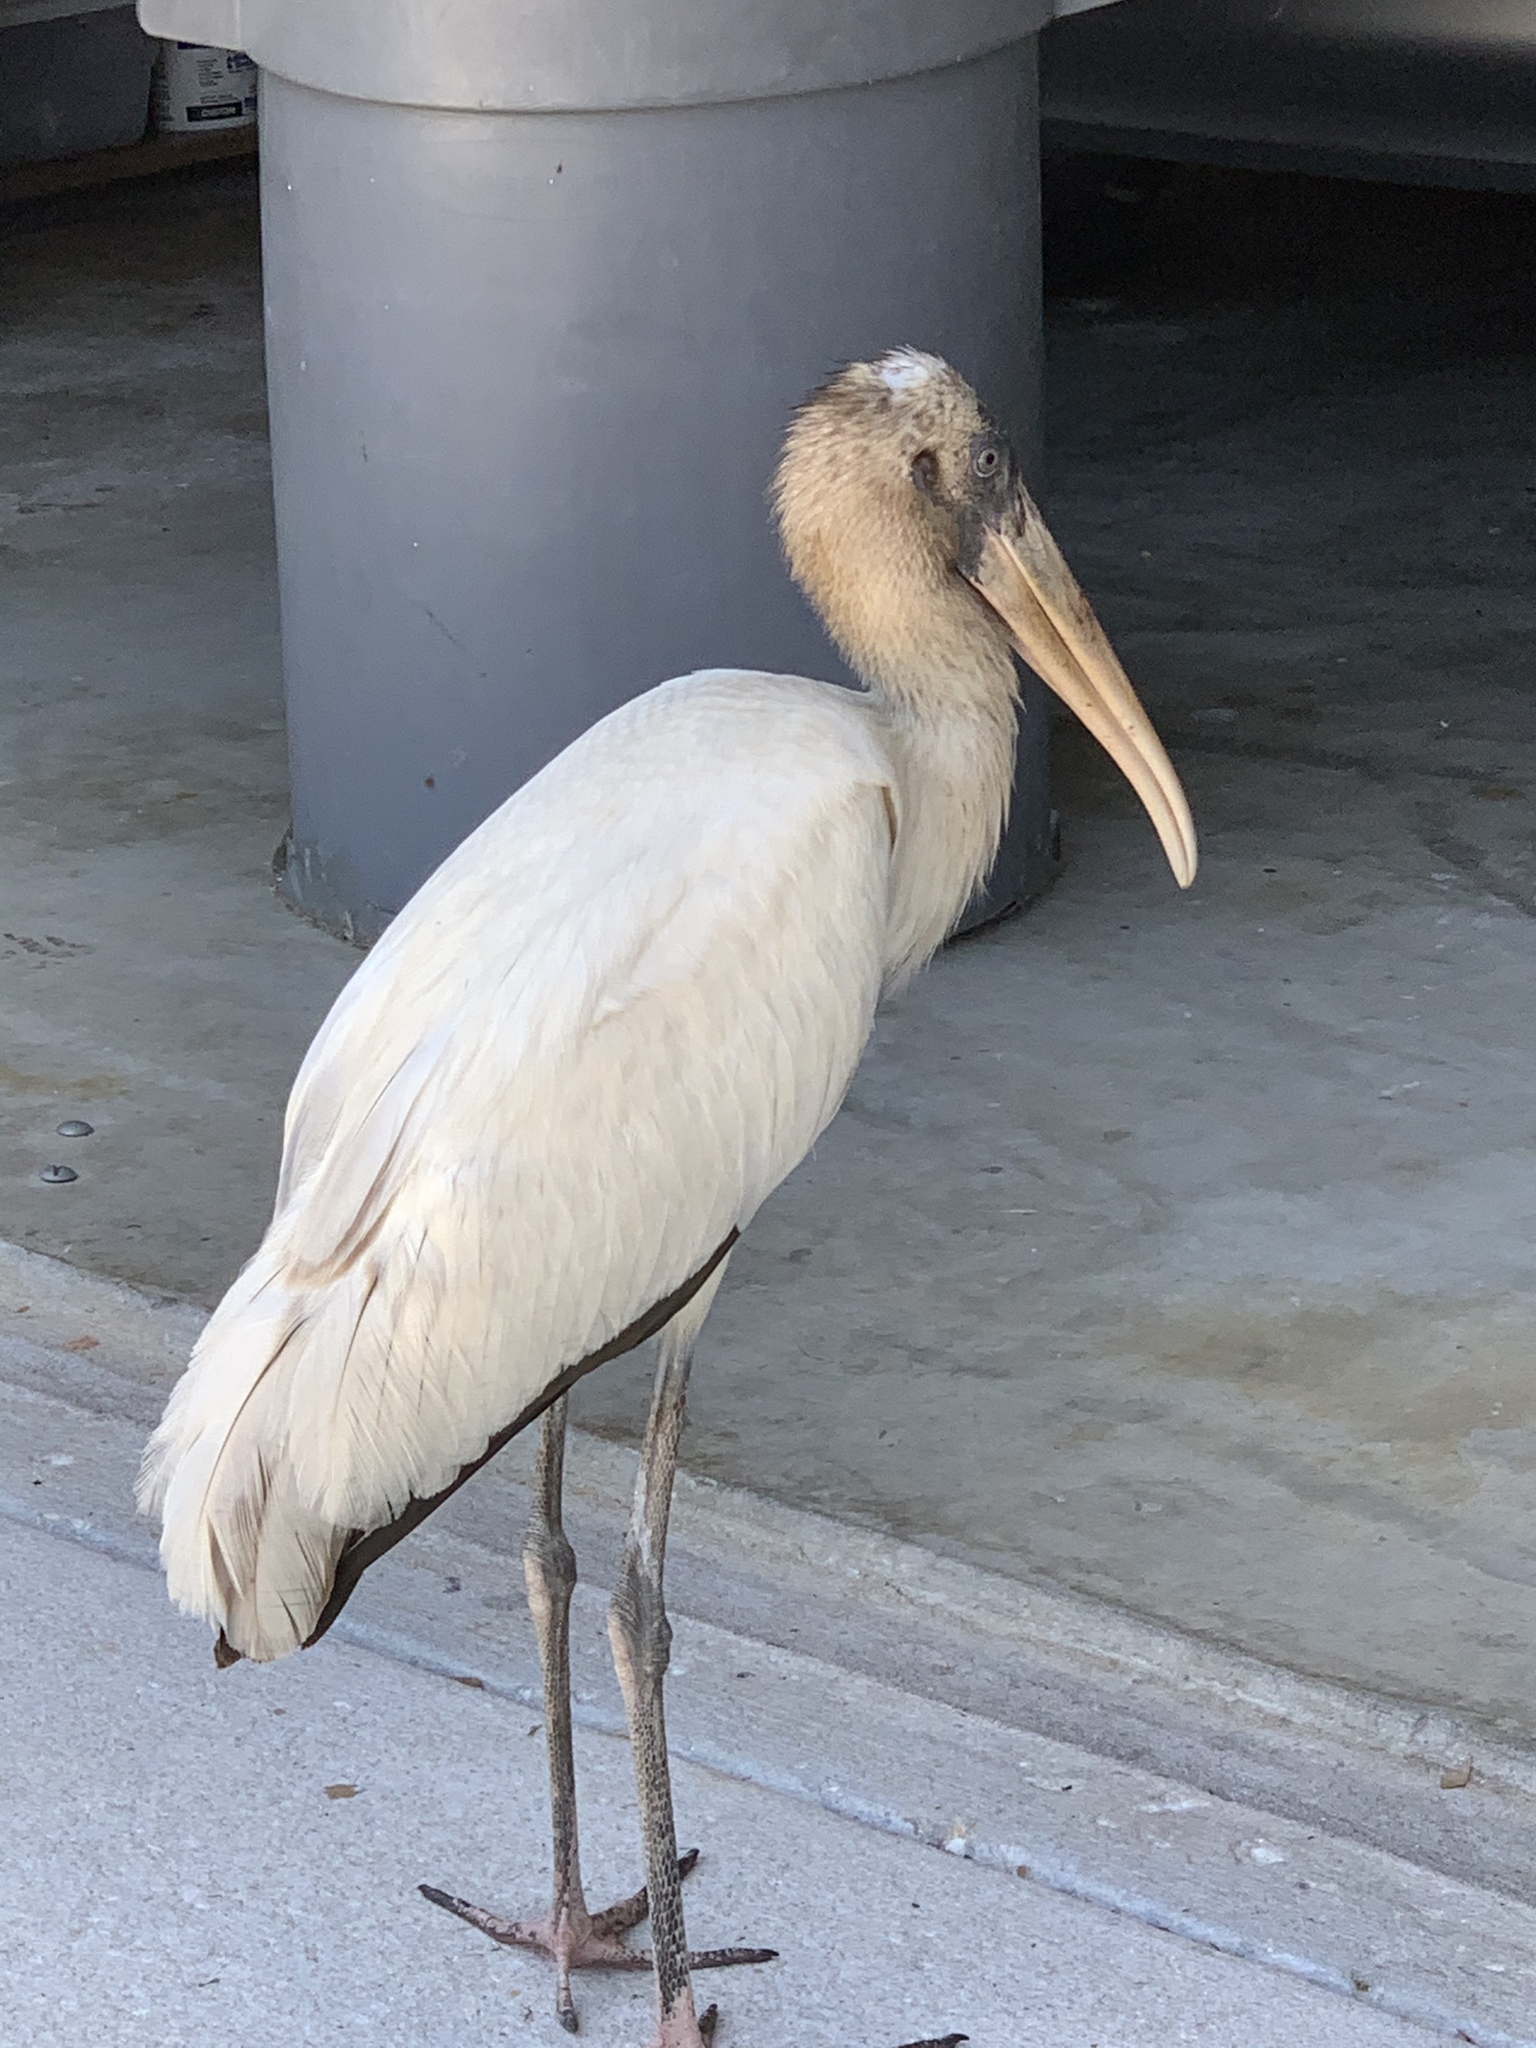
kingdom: Animalia
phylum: Chordata
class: Aves
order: Ciconiiformes
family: Ciconiidae
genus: Mycteria
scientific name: Mycteria americana
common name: Wood stork
